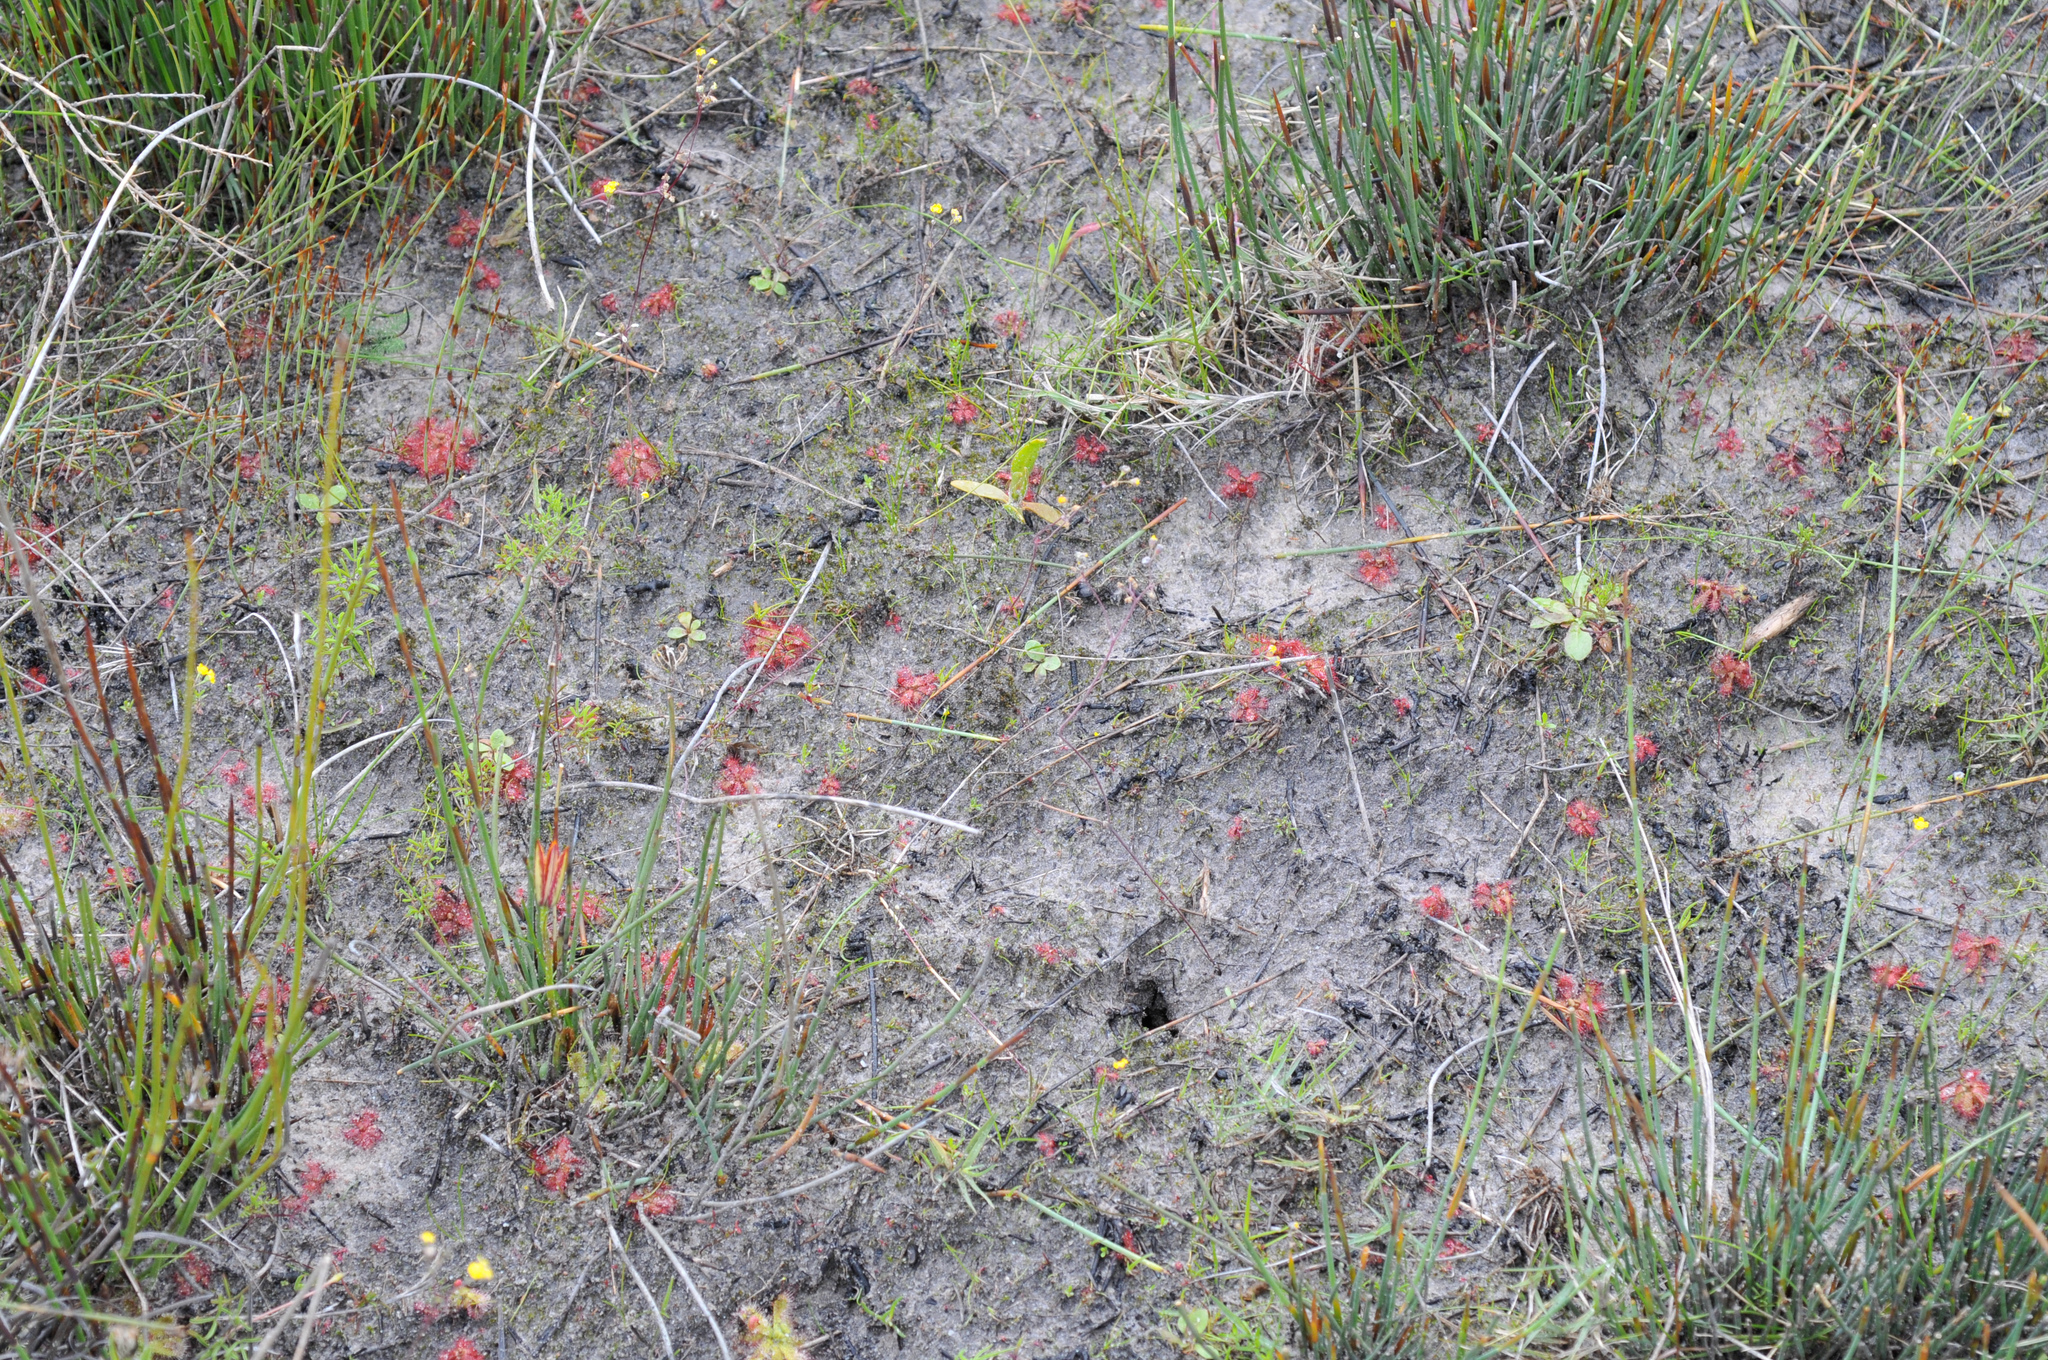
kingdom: Plantae
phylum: Tracheophyta
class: Magnoliopsida
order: Caryophyllales
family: Droseraceae
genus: Drosera
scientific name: Drosera trinervia
